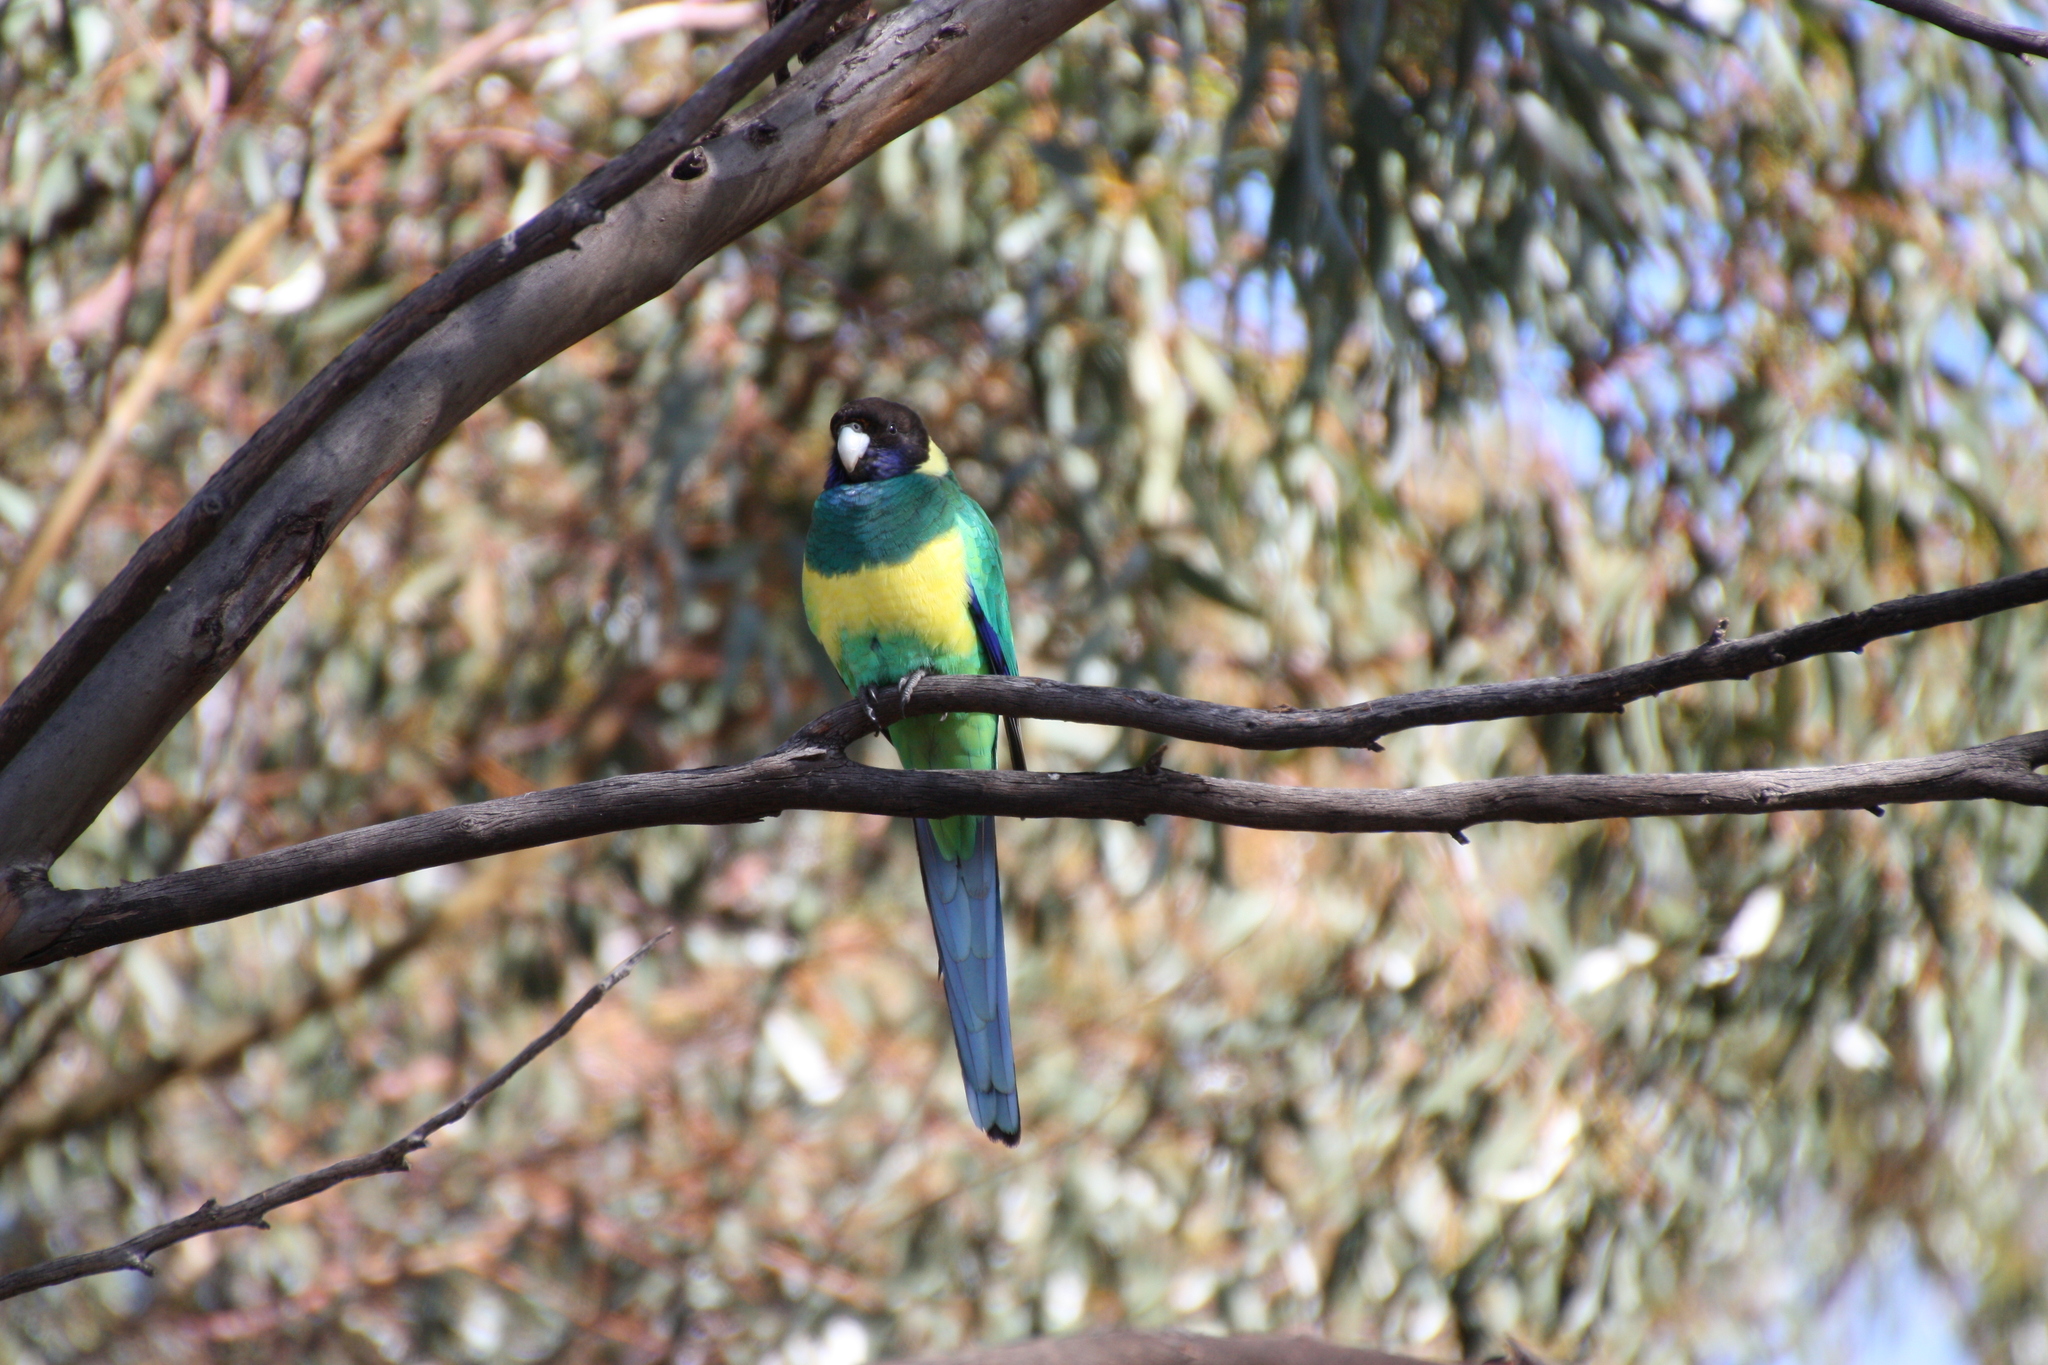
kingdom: Animalia
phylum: Chordata
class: Aves
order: Psittaciformes
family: Psittacidae
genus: Barnardius
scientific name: Barnardius zonarius
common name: Australian ringneck
